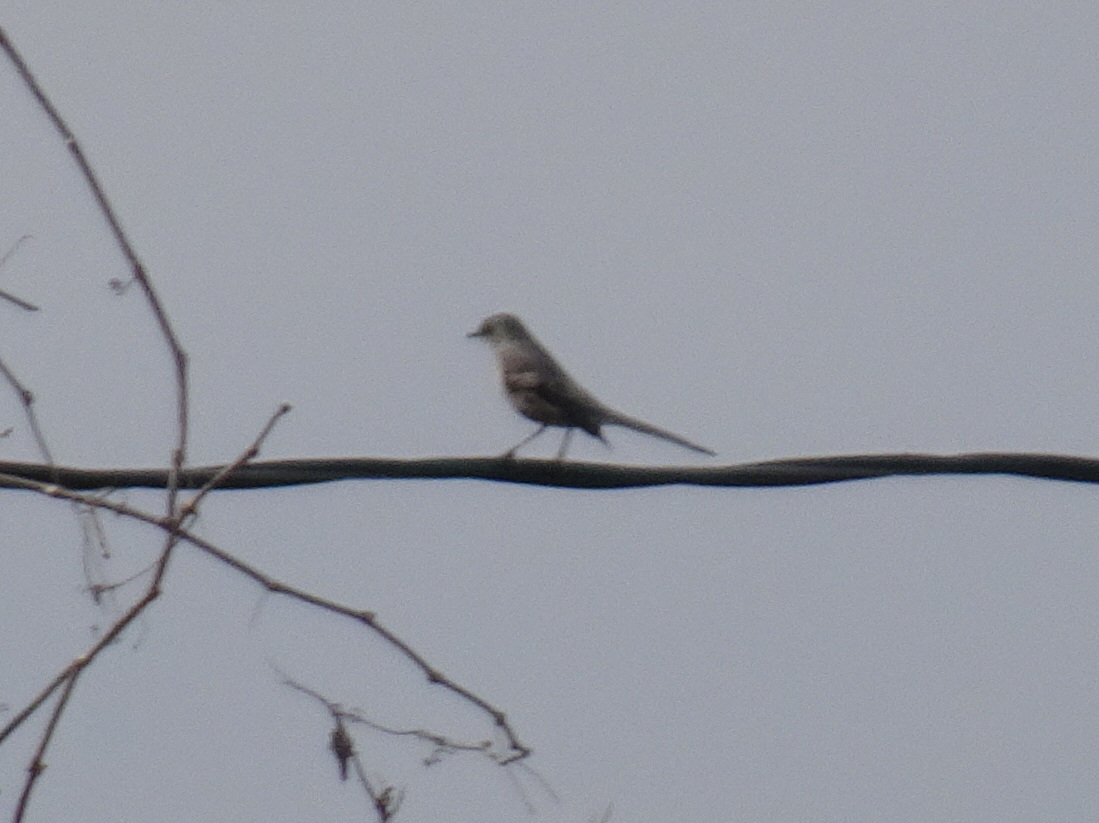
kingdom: Animalia
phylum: Chordata
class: Aves
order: Passeriformes
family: Mimidae
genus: Mimus
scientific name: Mimus polyglottos
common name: Northern mockingbird
